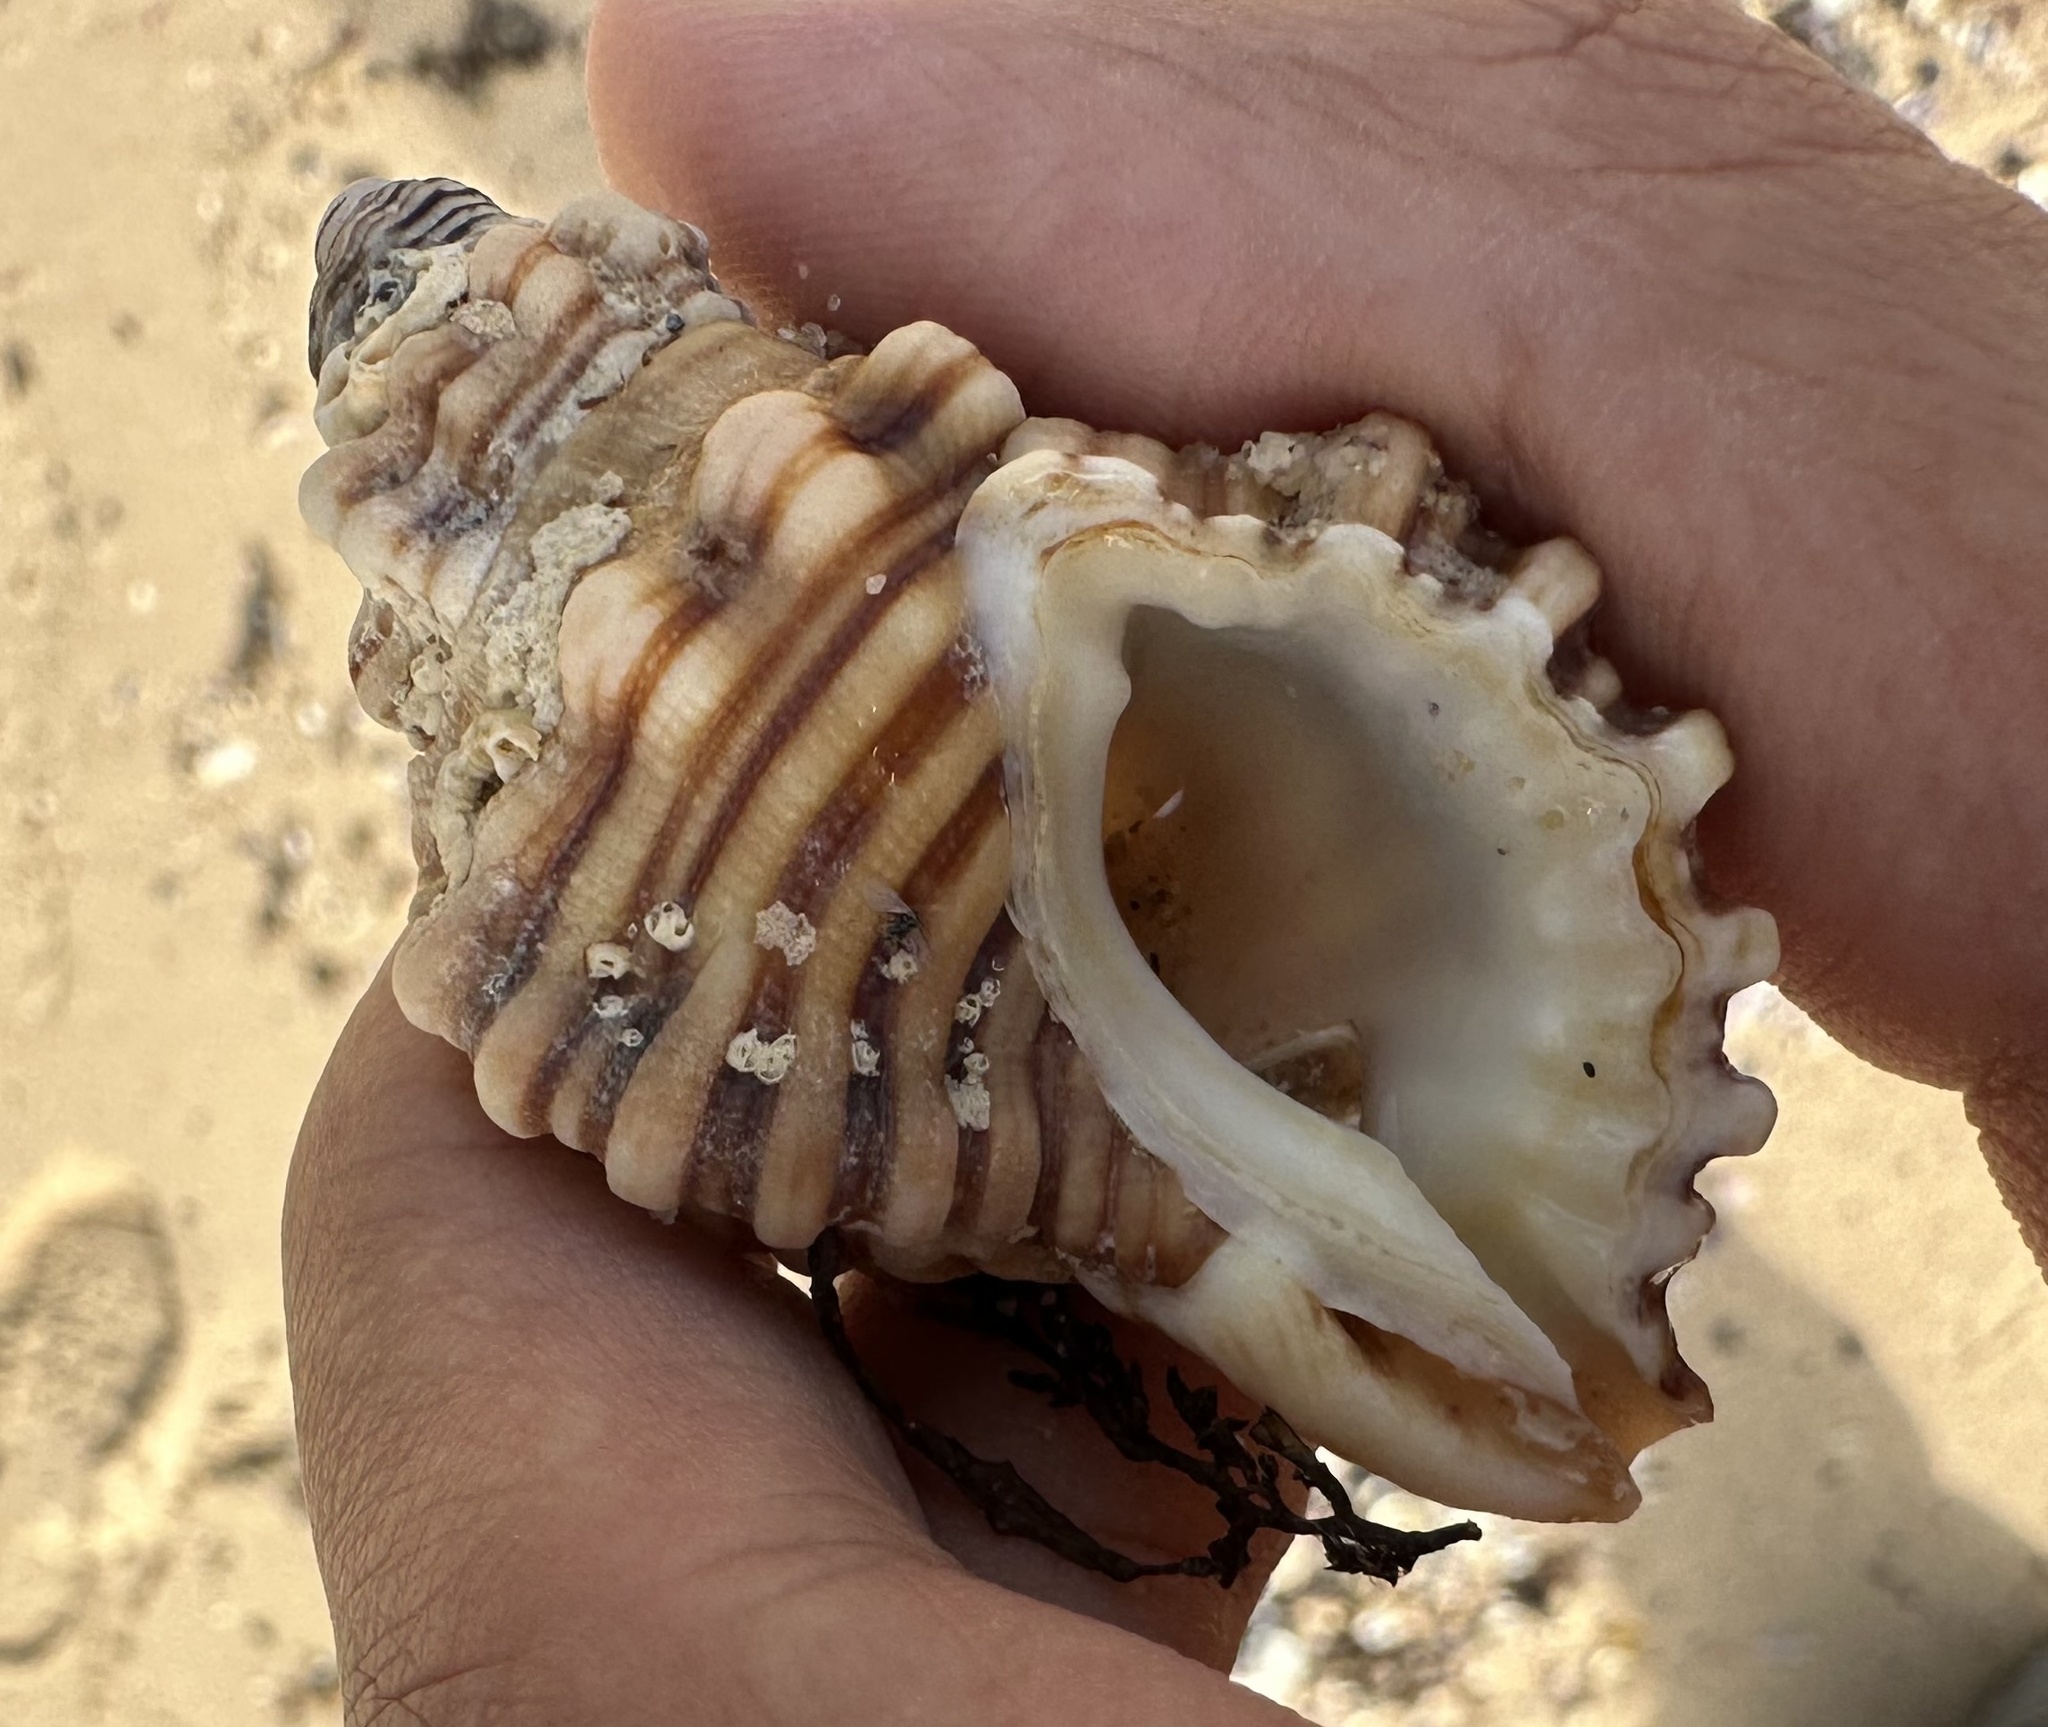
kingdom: Animalia
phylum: Mollusca
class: Gastropoda
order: Littorinimorpha
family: Cymatiidae
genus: Cabestana
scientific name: Cabestana spengleri
